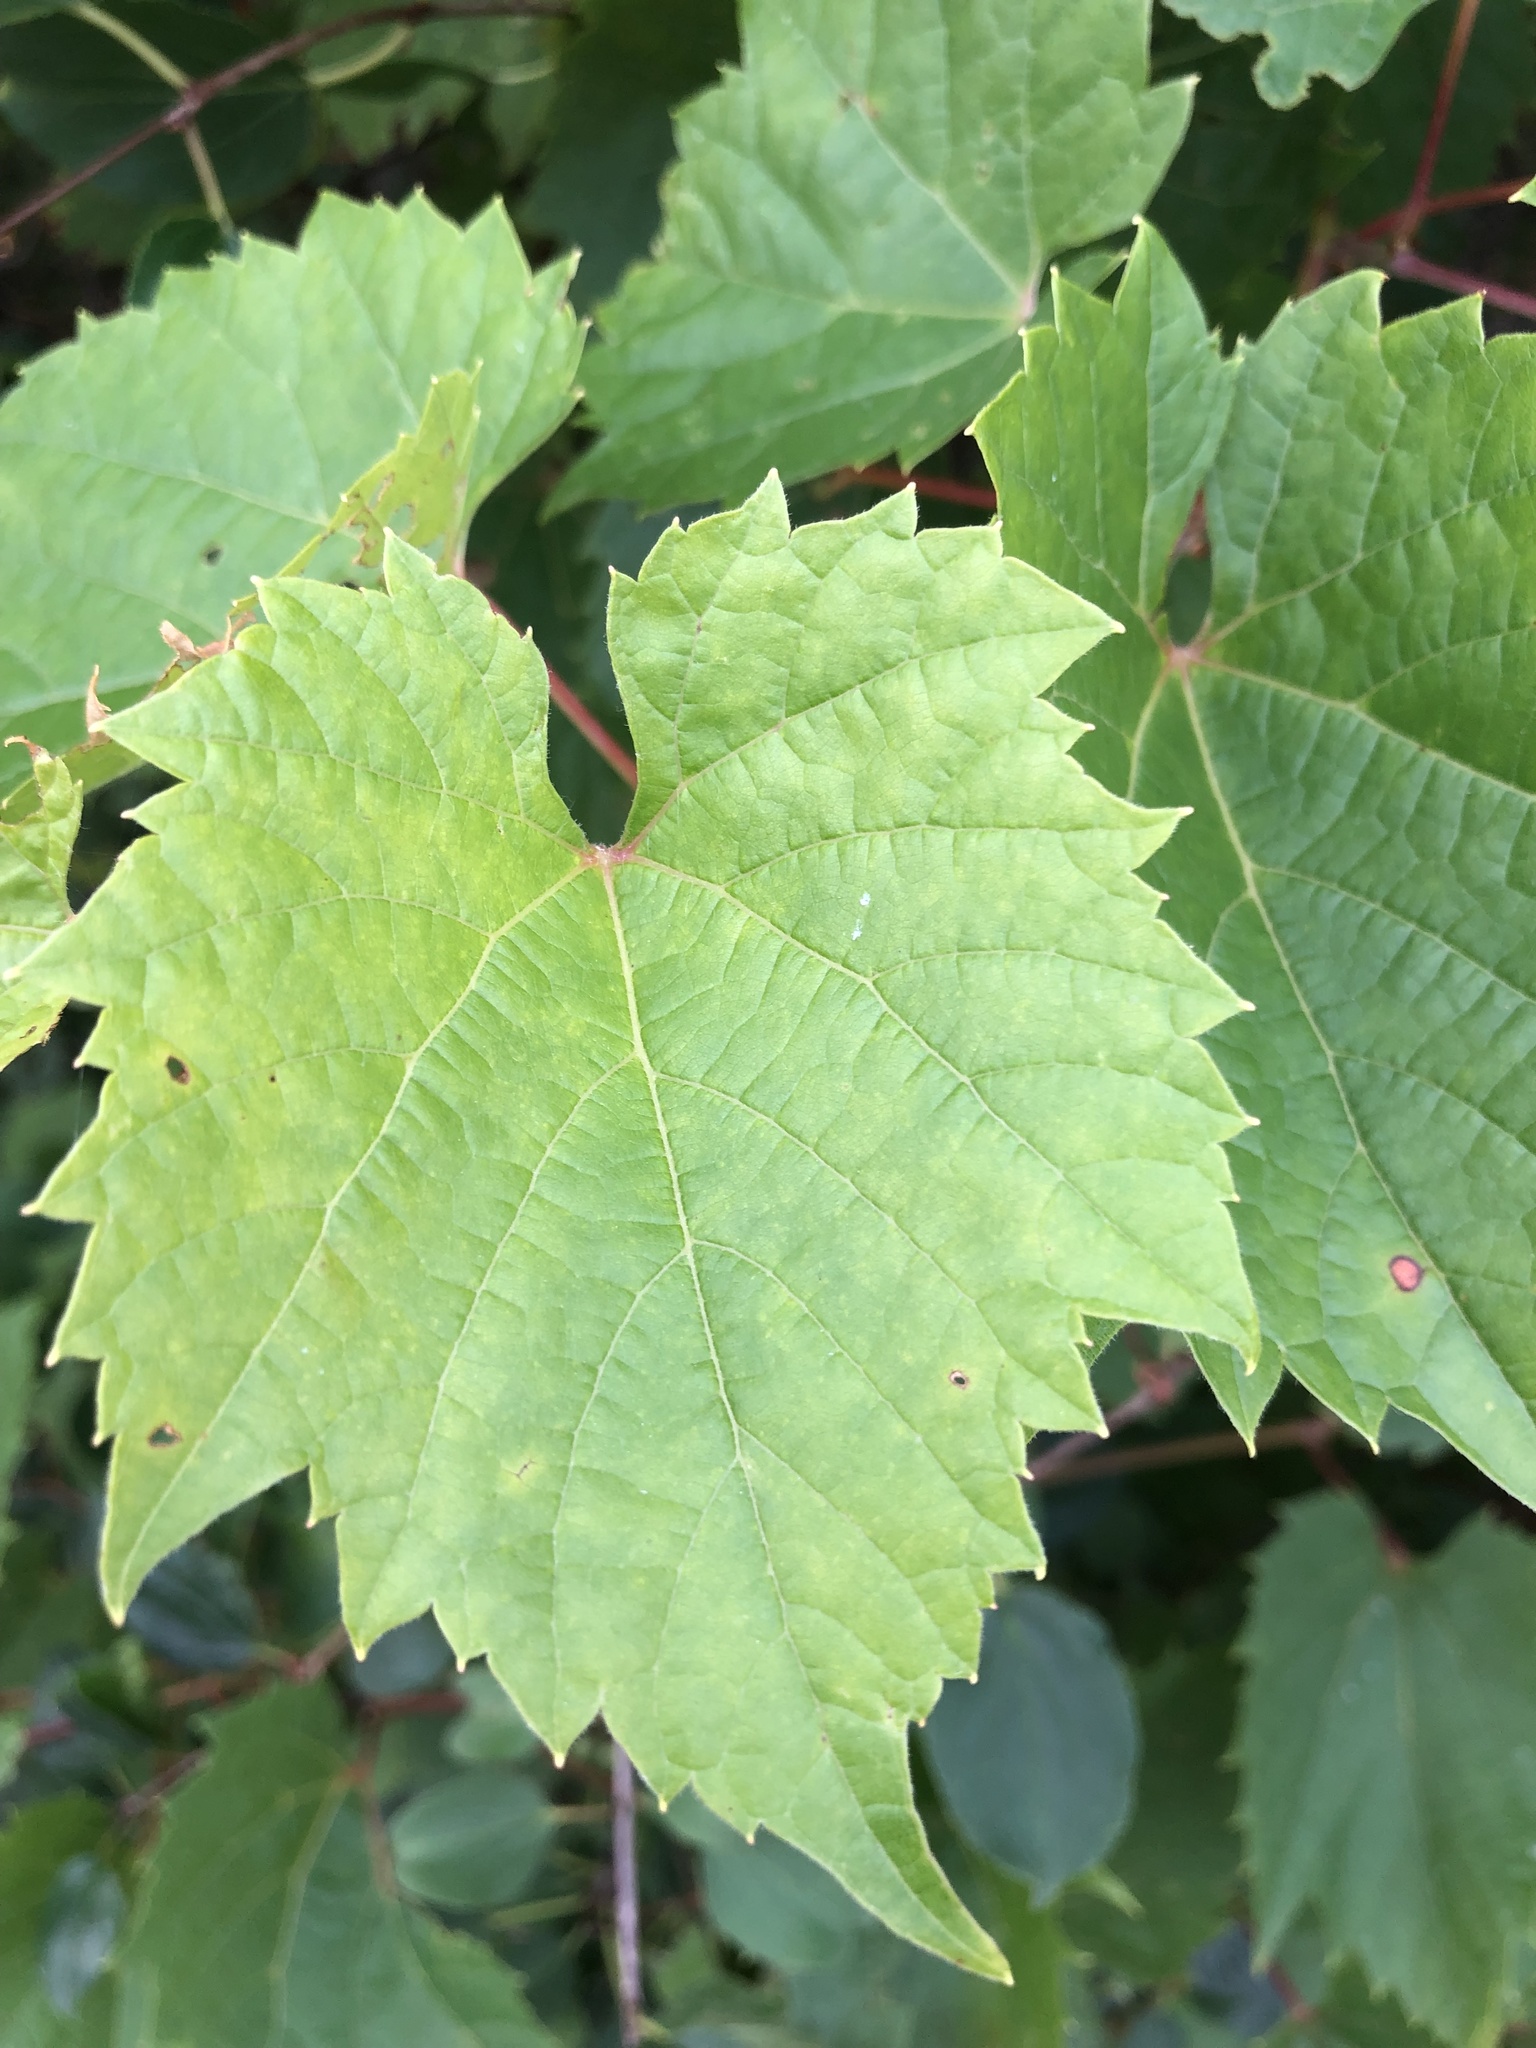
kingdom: Plantae
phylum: Tracheophyta
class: Magnoliopsida
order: Vitales
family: Vitaceae
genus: Vitis
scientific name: Vitis riparia
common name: Frost grape
